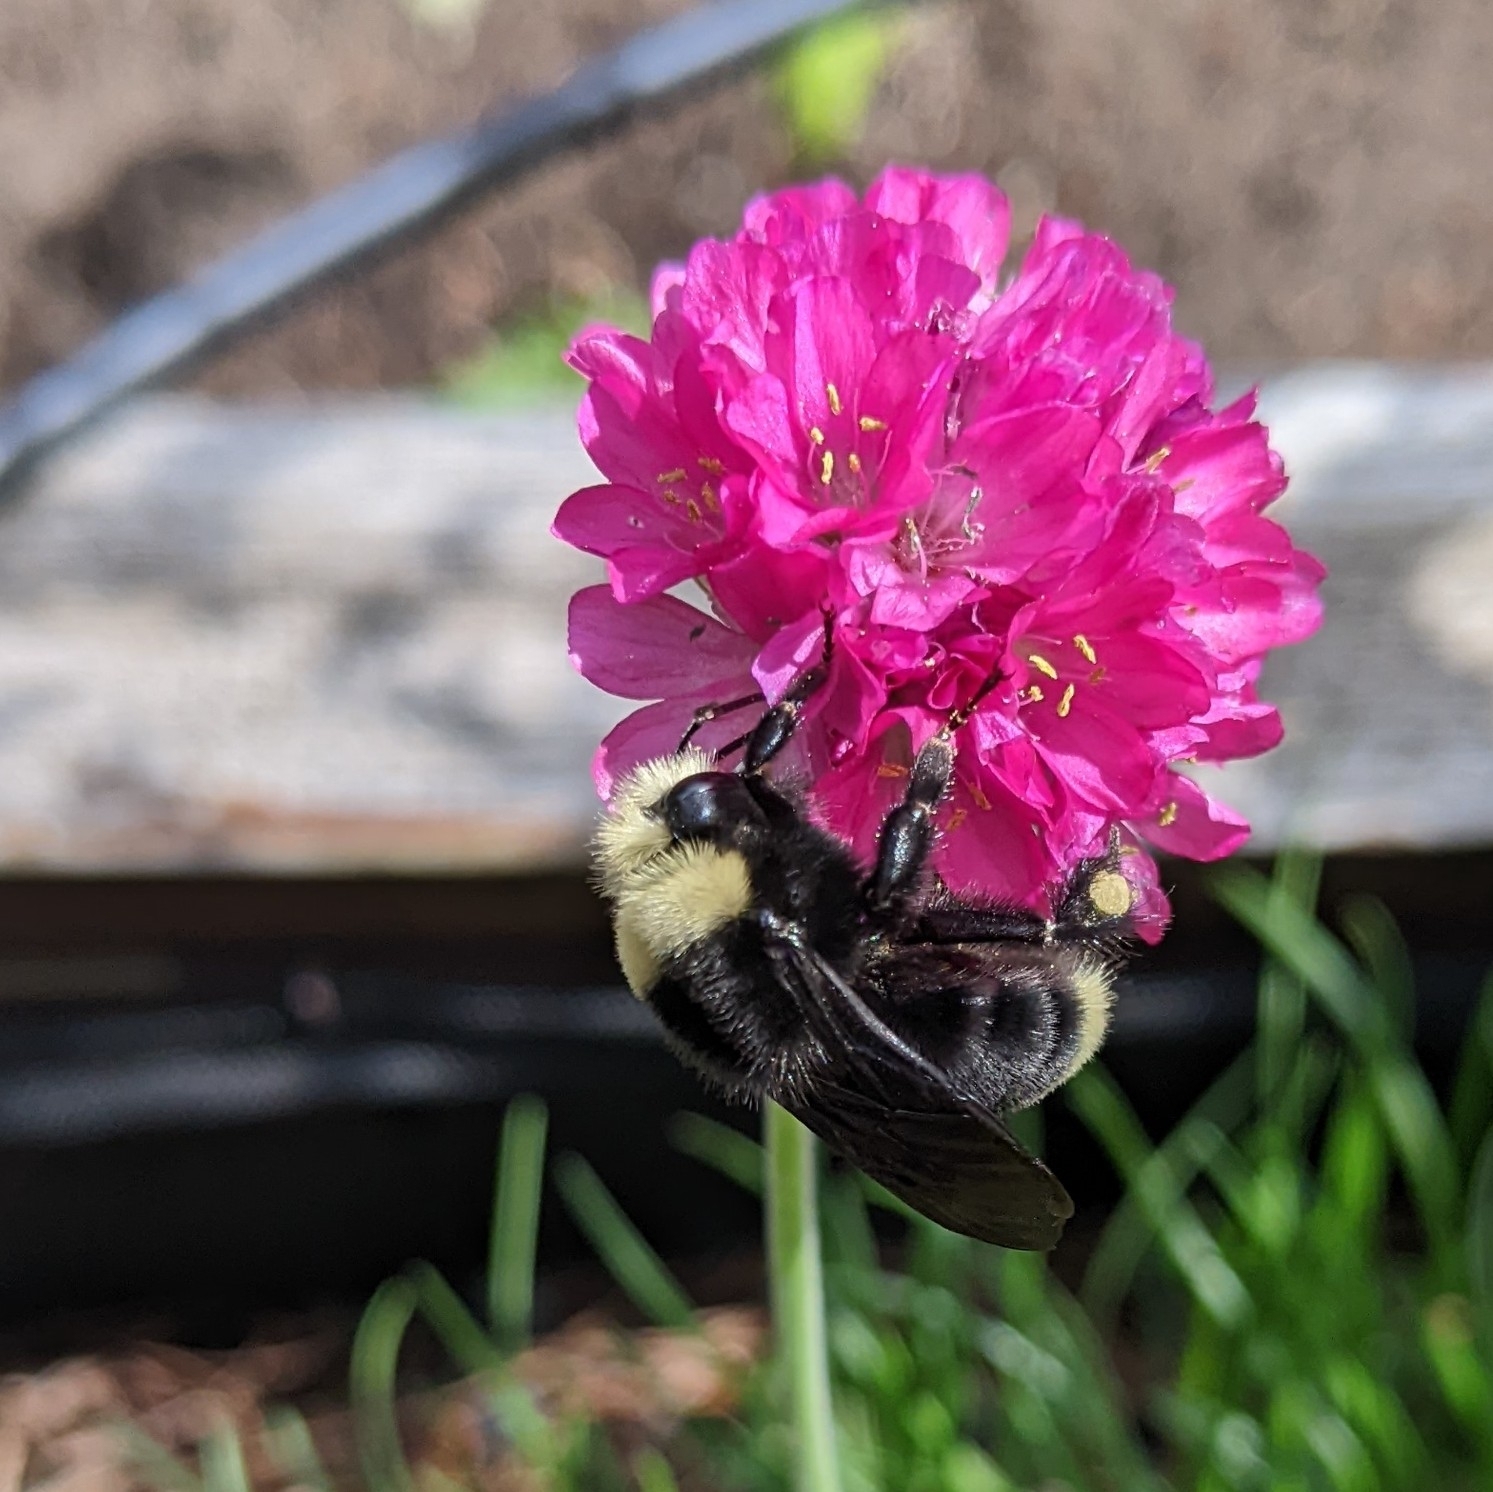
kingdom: Animalia
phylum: Arthropoda
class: Insecta
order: Hymenoptera
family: Apidae
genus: Bombus
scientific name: Bombus vosnesenskii
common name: Vosnesensky bumble bee
